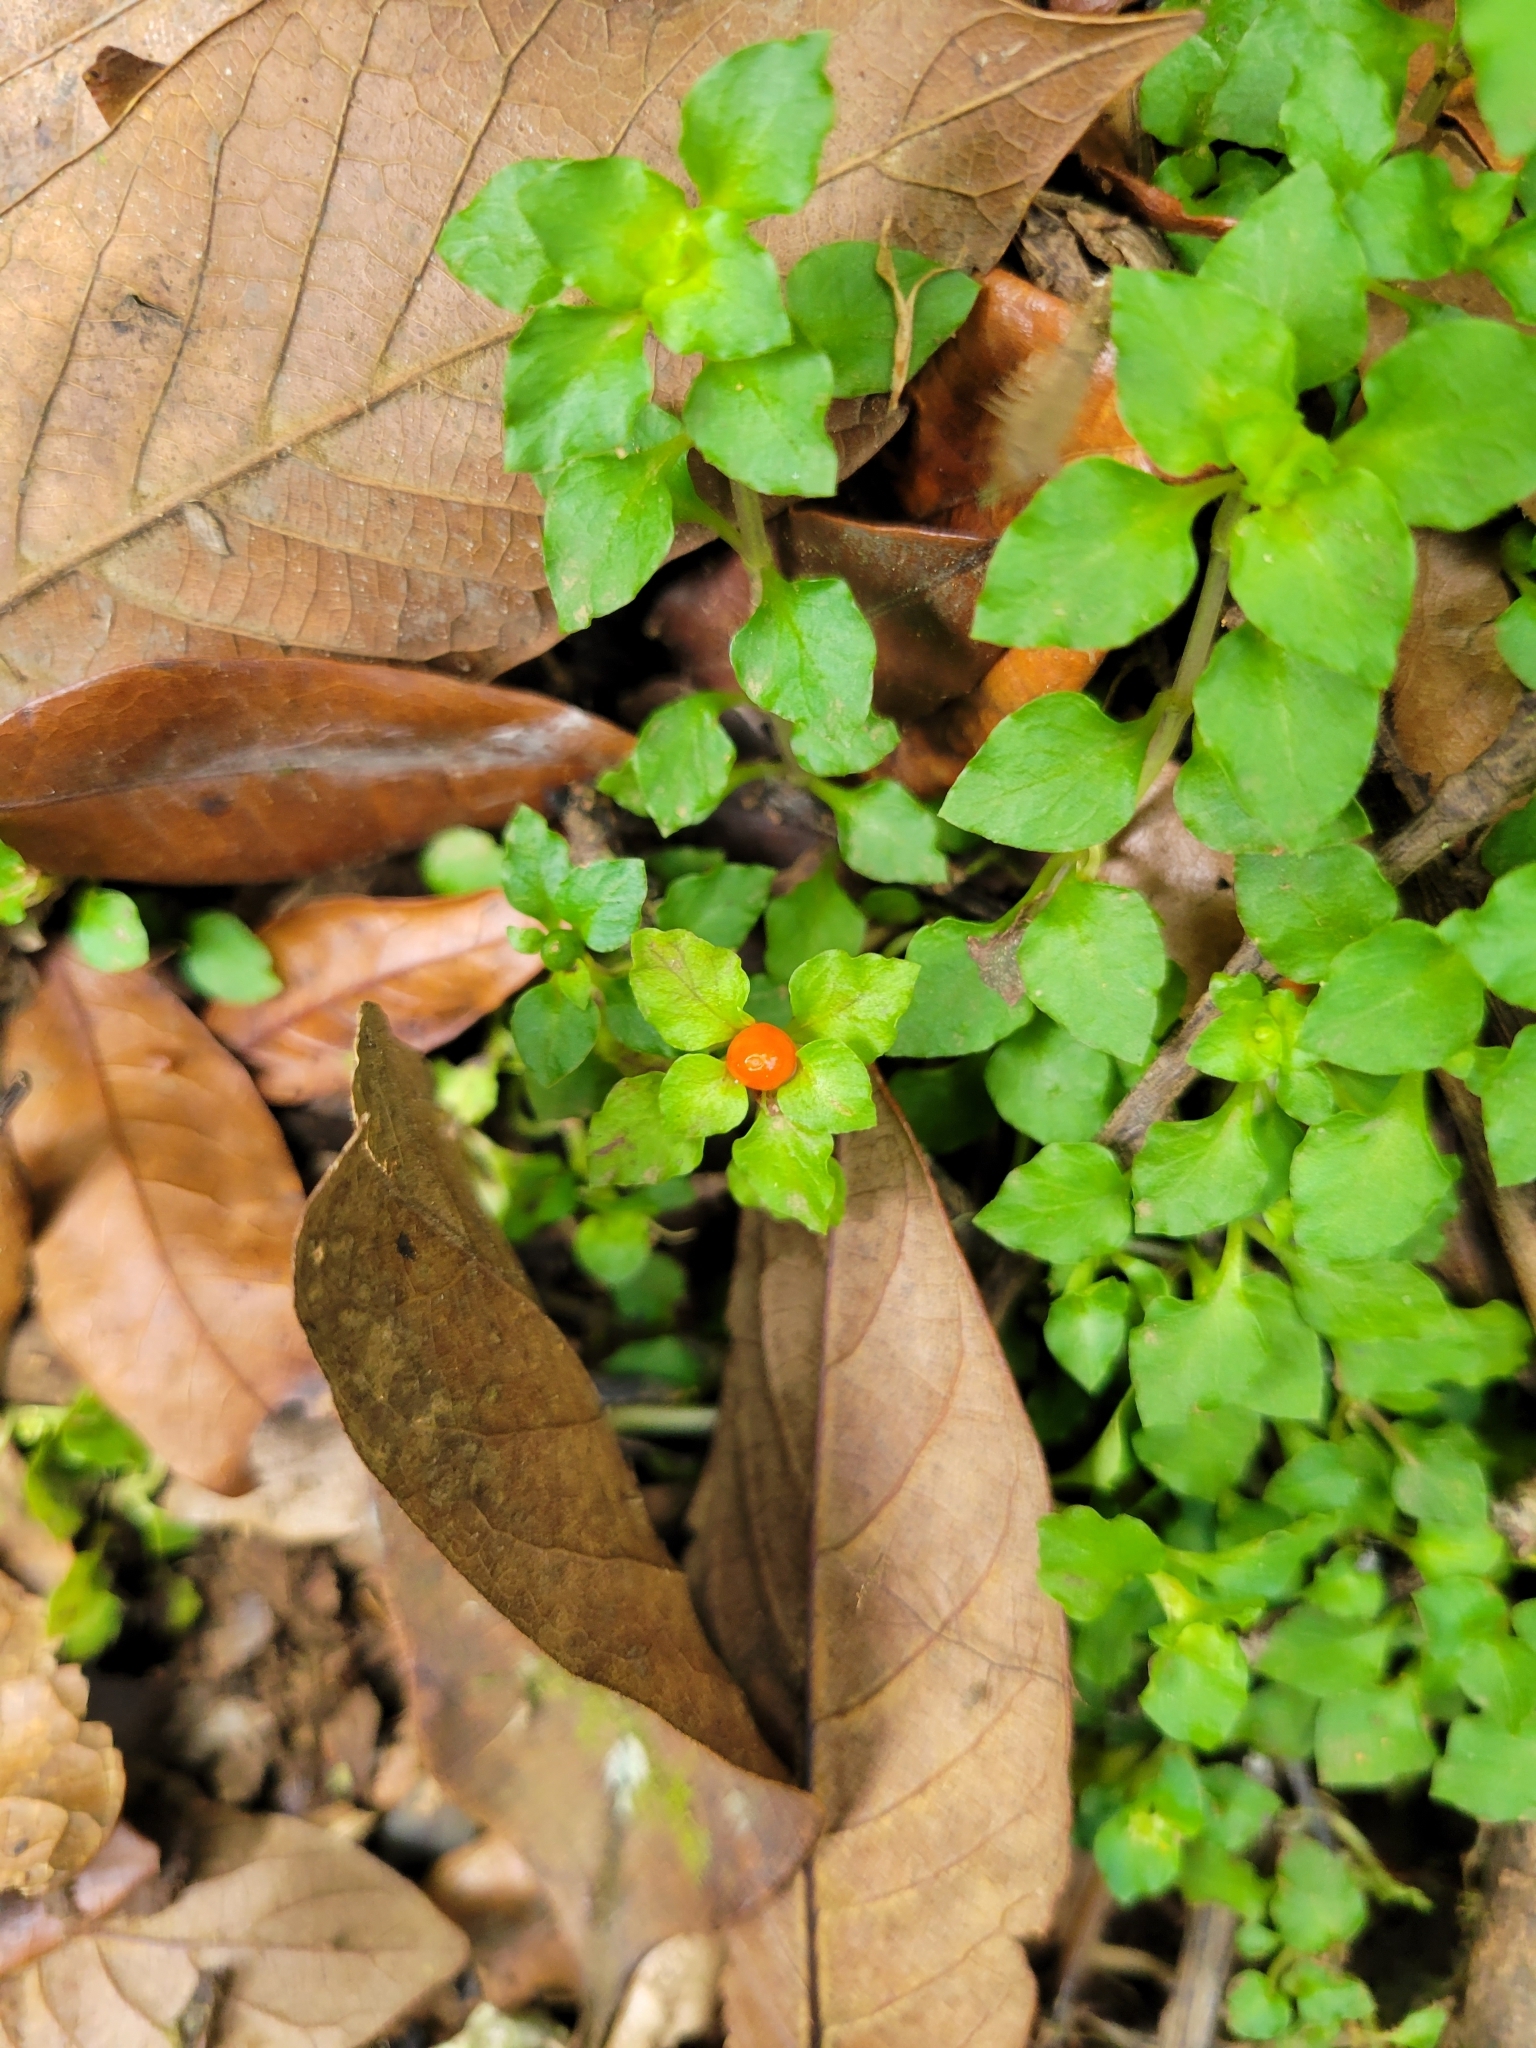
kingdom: Plantae
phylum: Tracheophyta
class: Magnoliopsida
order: Gentianales
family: Rubiaceae
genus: Nertera
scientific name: Nertera granadensis
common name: Beadplant
